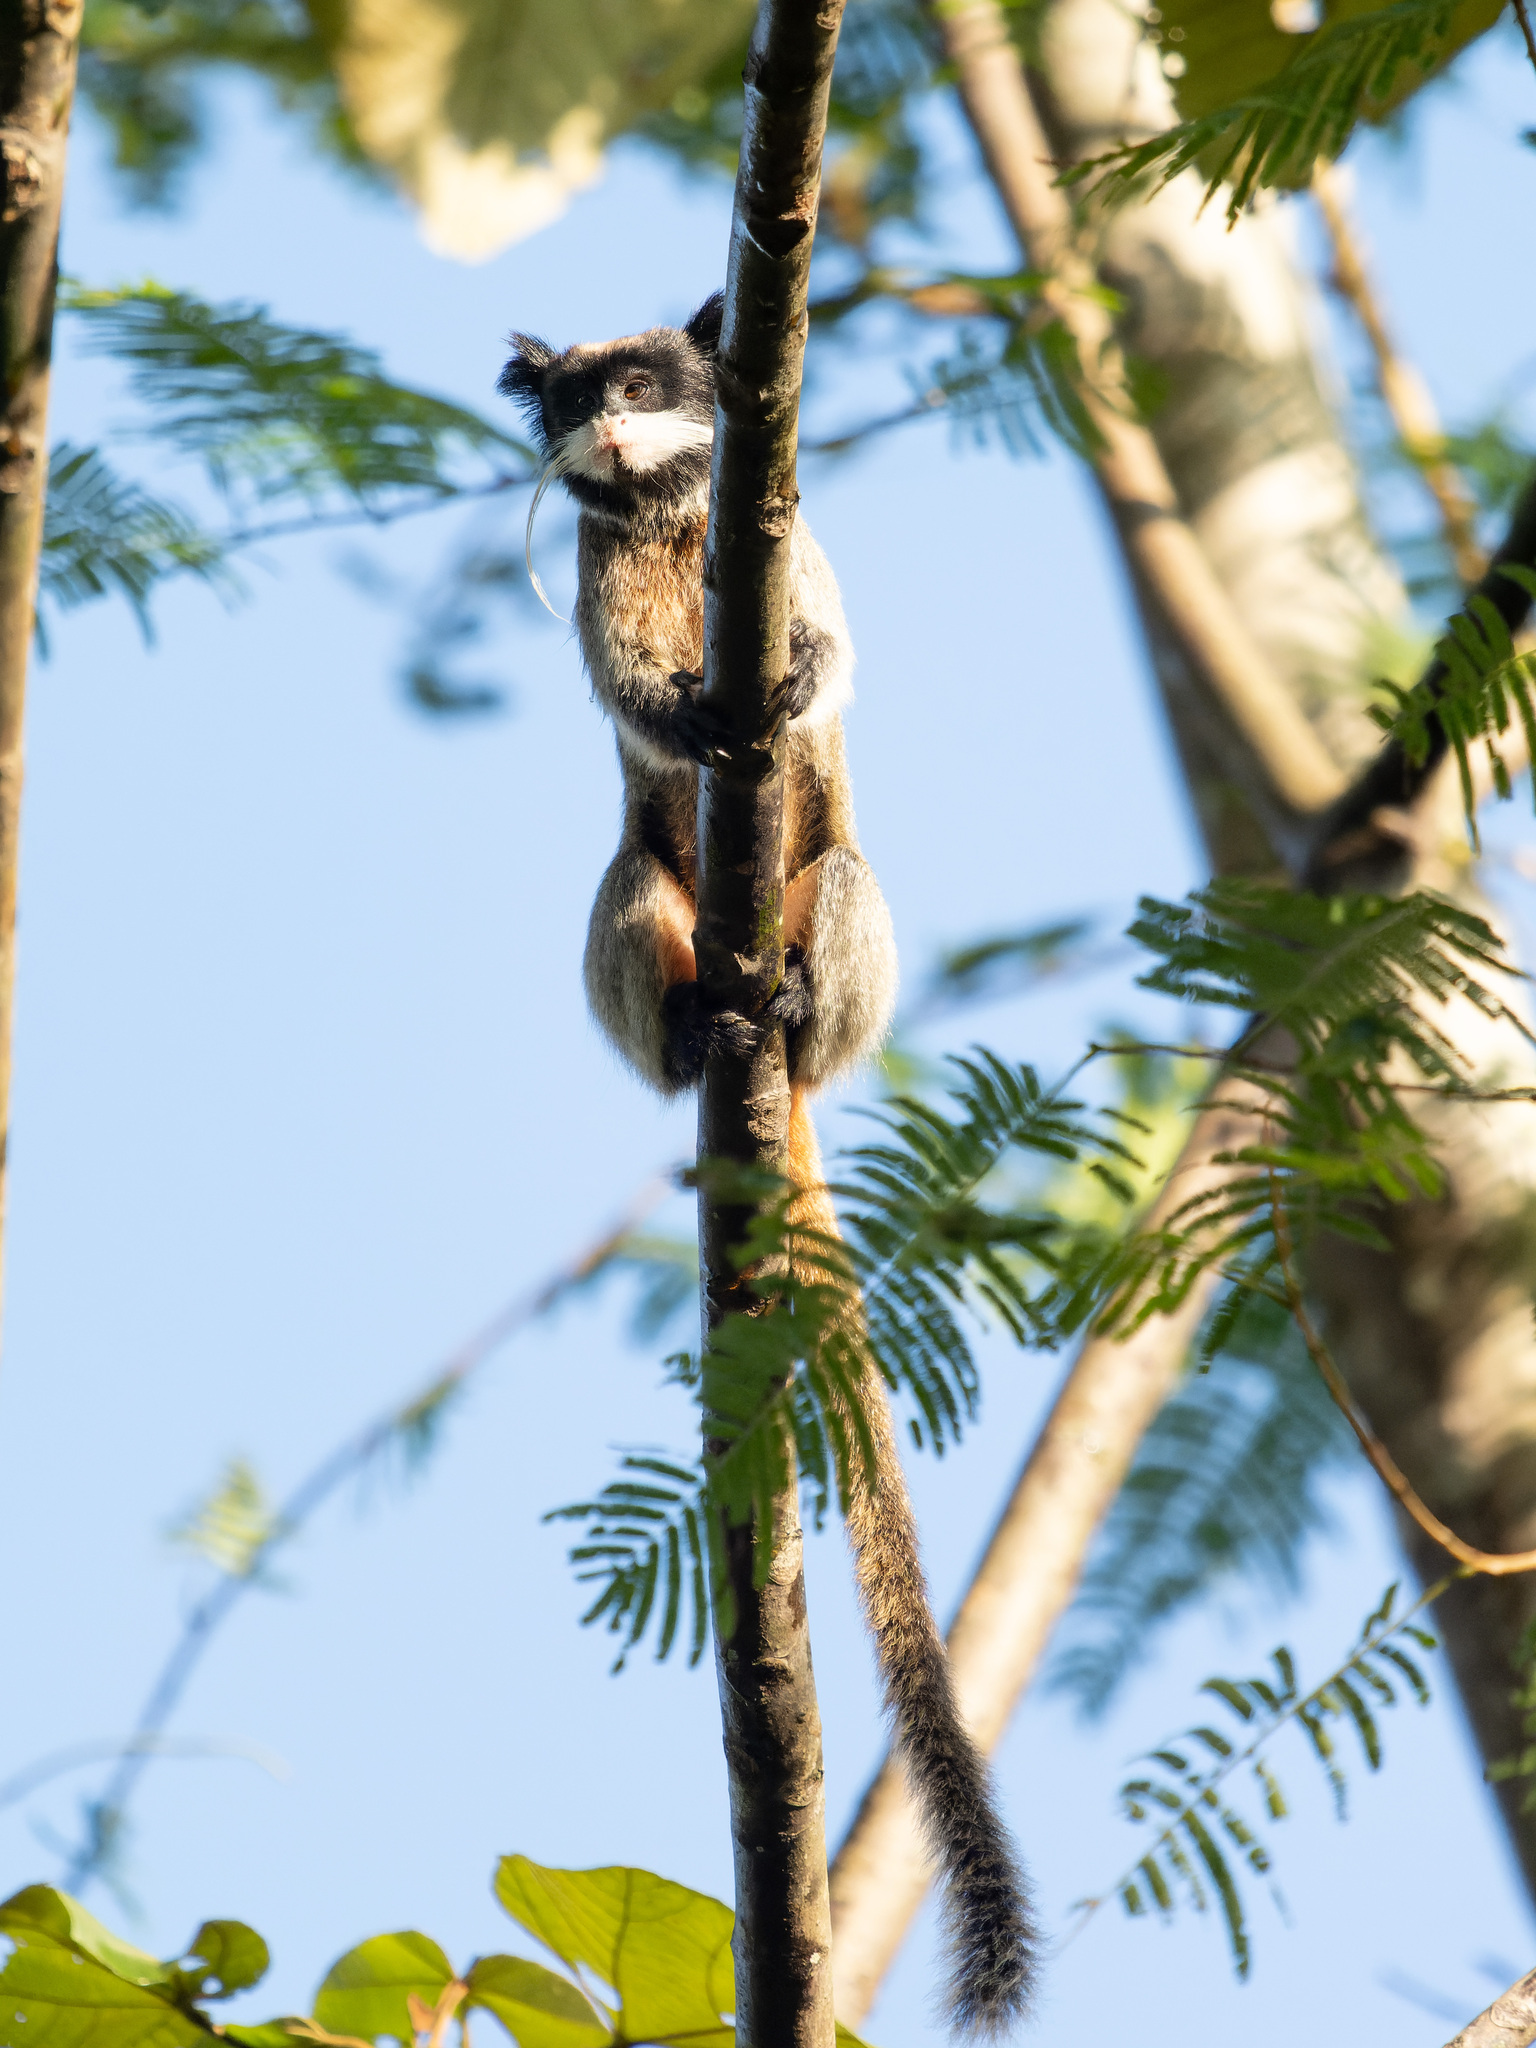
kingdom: Animalia
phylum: Chordata
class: Mammalia
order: Primates
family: Callitrichidae
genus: Saguinus
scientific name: Saguinus imperator
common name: Emperor tamarin
